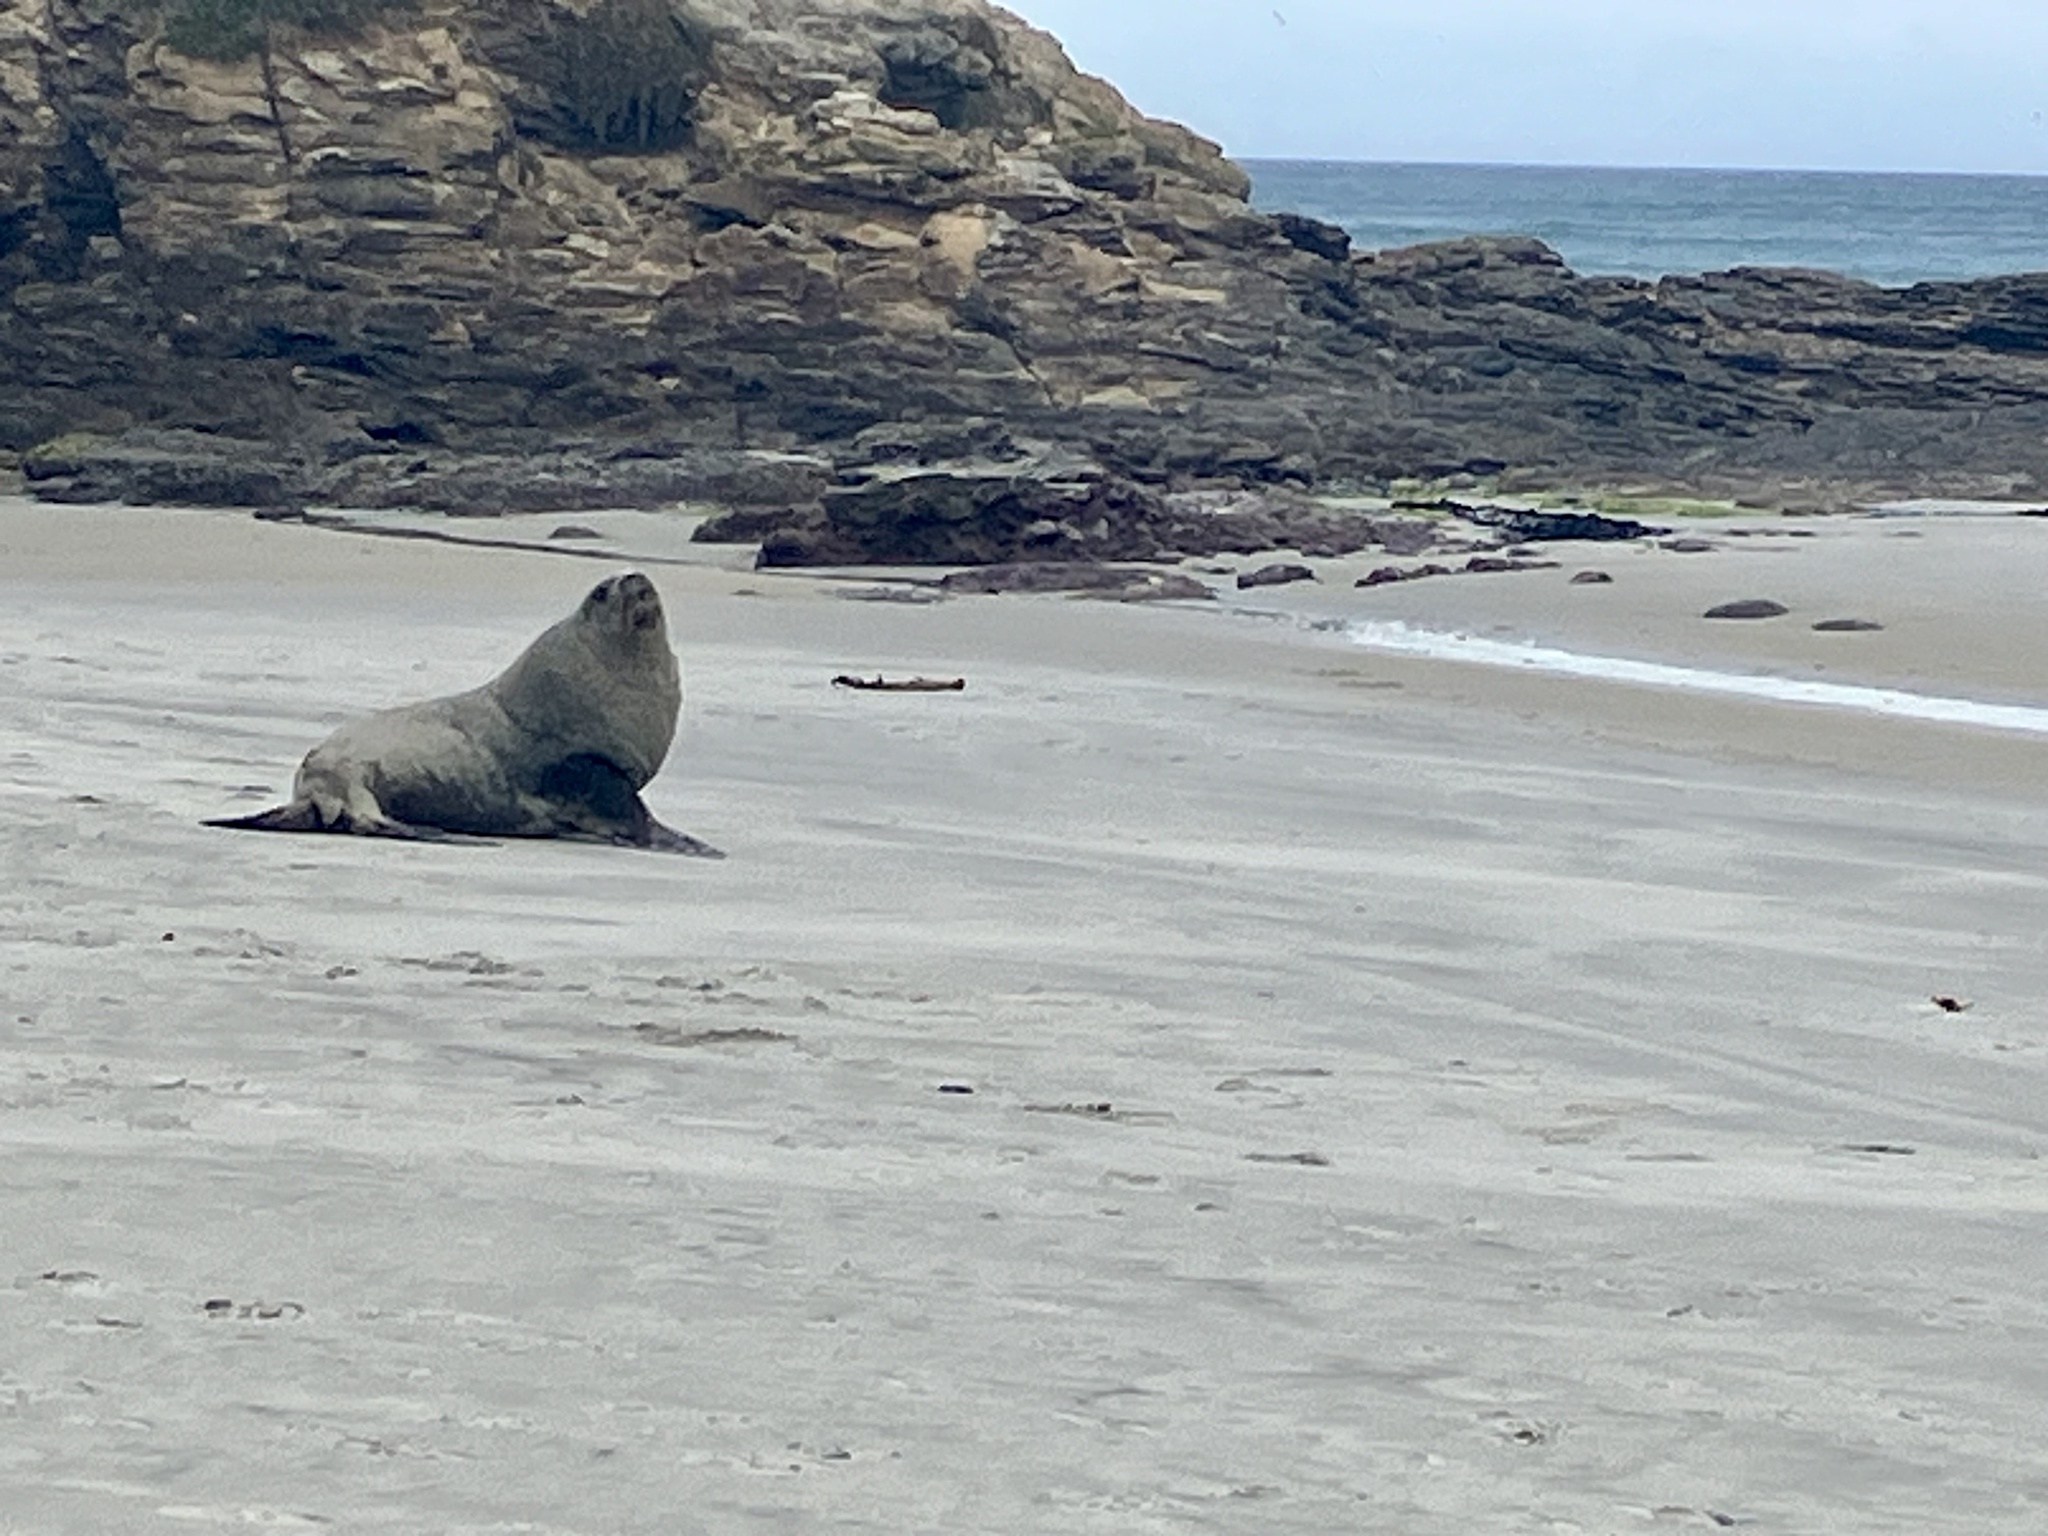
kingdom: Animalia
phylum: Chordata
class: Mammalia
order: Carnivora
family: Otariidae
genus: Phocarctos
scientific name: Phocarctos hookeri
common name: New zealand sea lion
